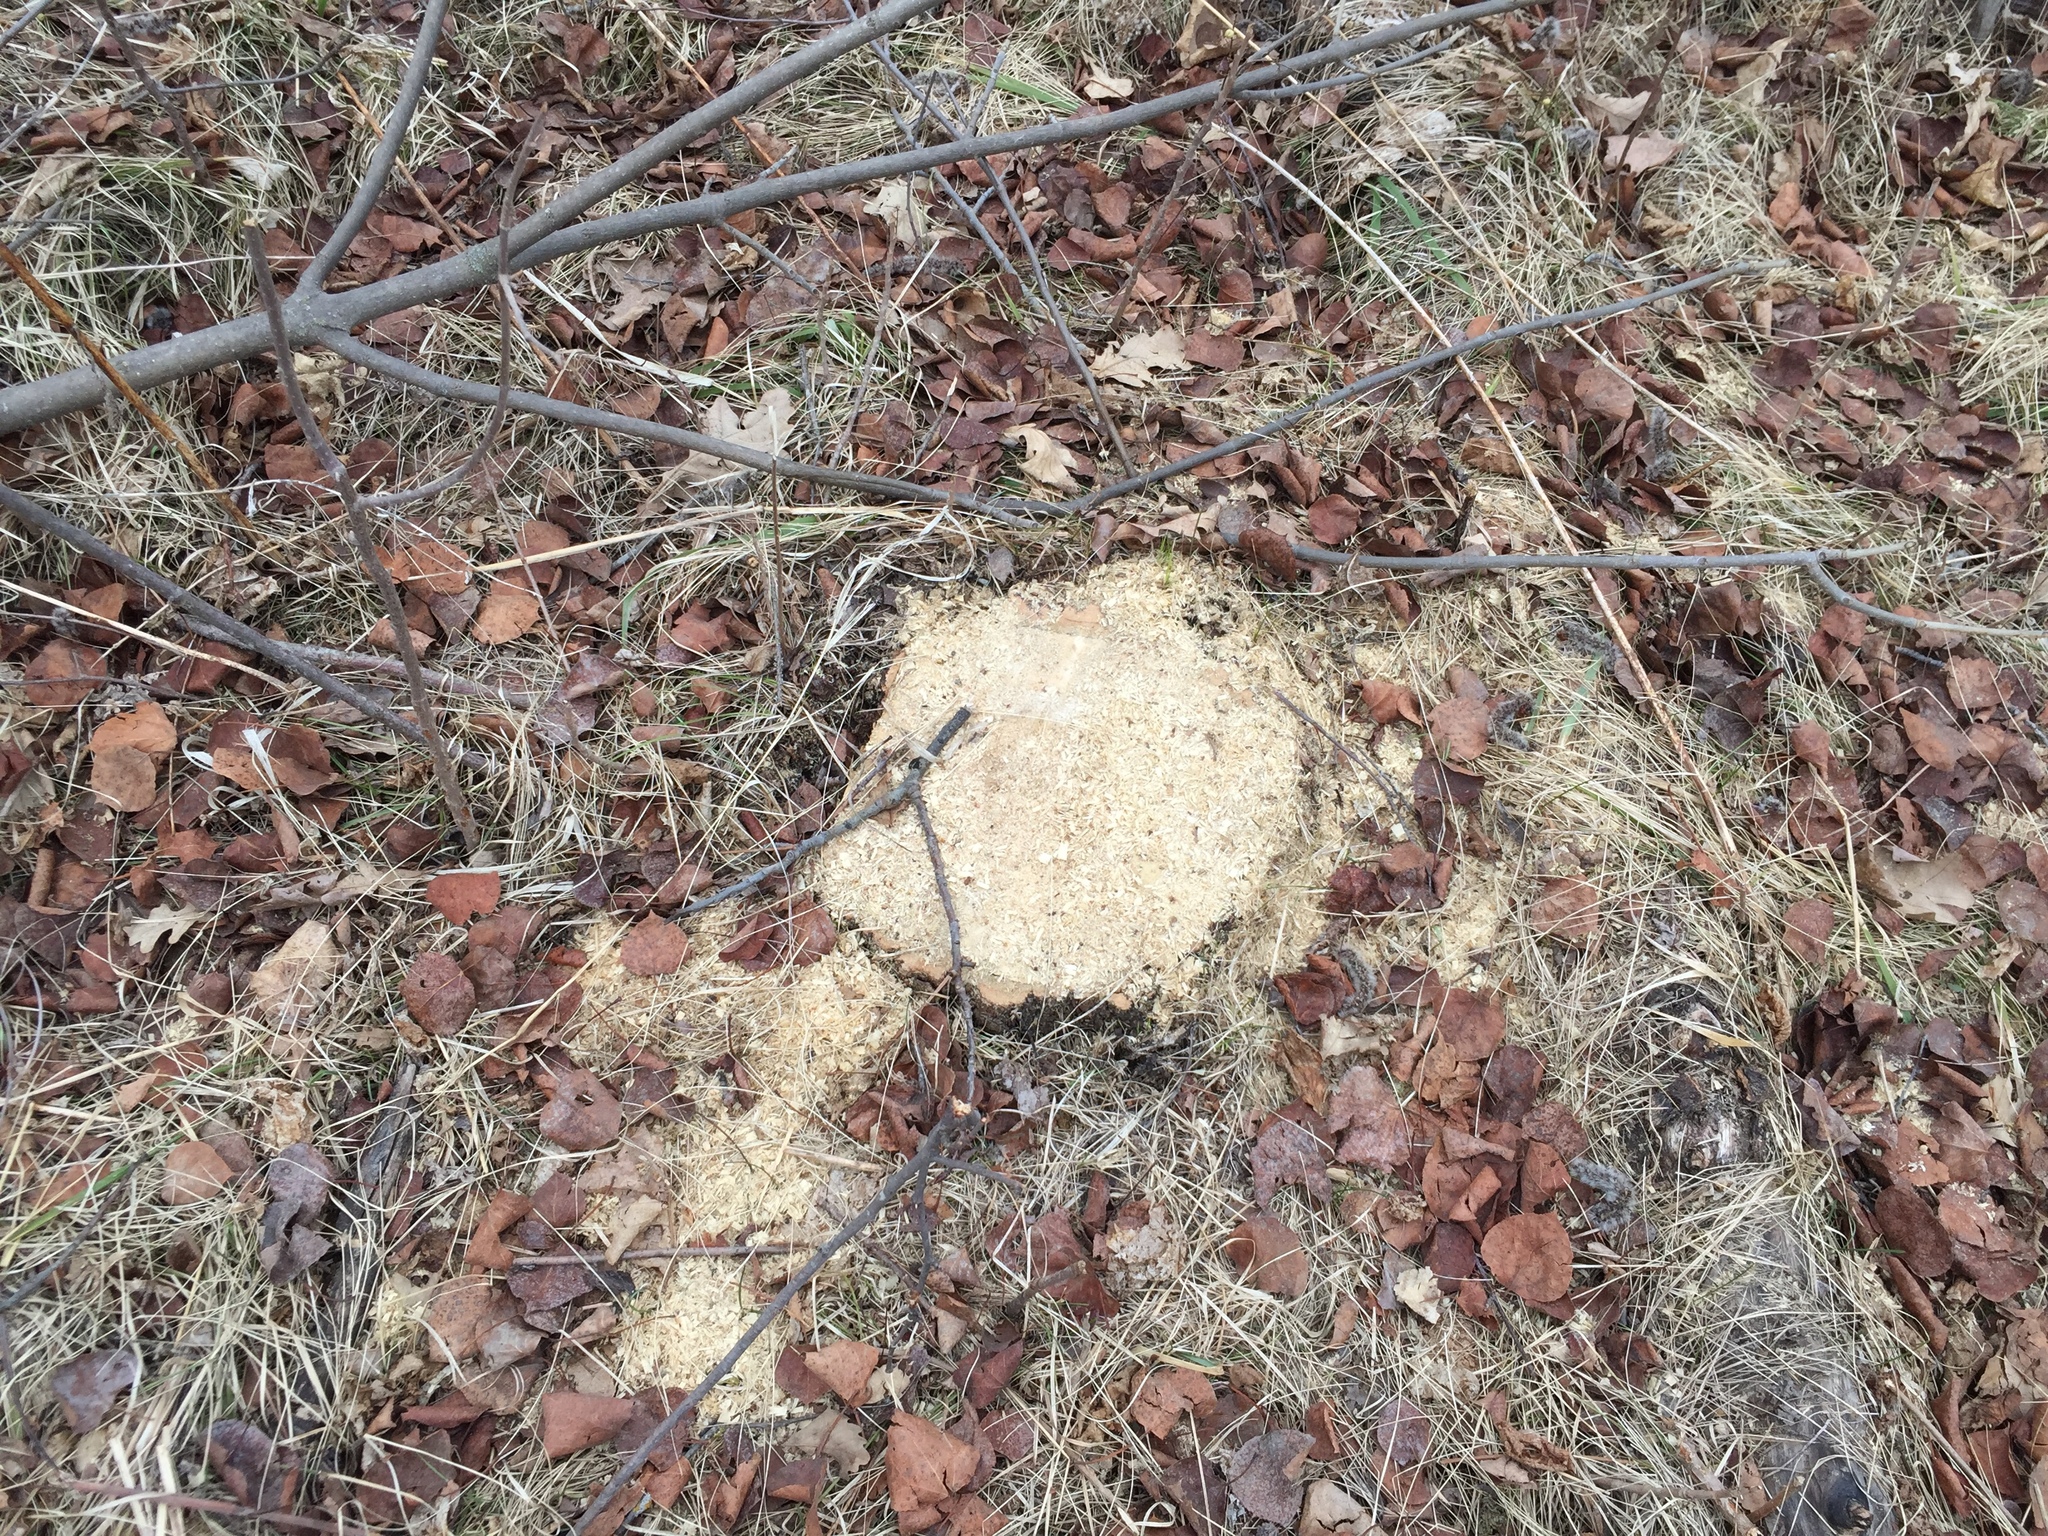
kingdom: Plantae
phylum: Tracheophyta
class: Magnoliopsida
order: Malpighiales
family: Salicaceae
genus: Populus
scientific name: Populus tremuloides
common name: Quaking aspen
